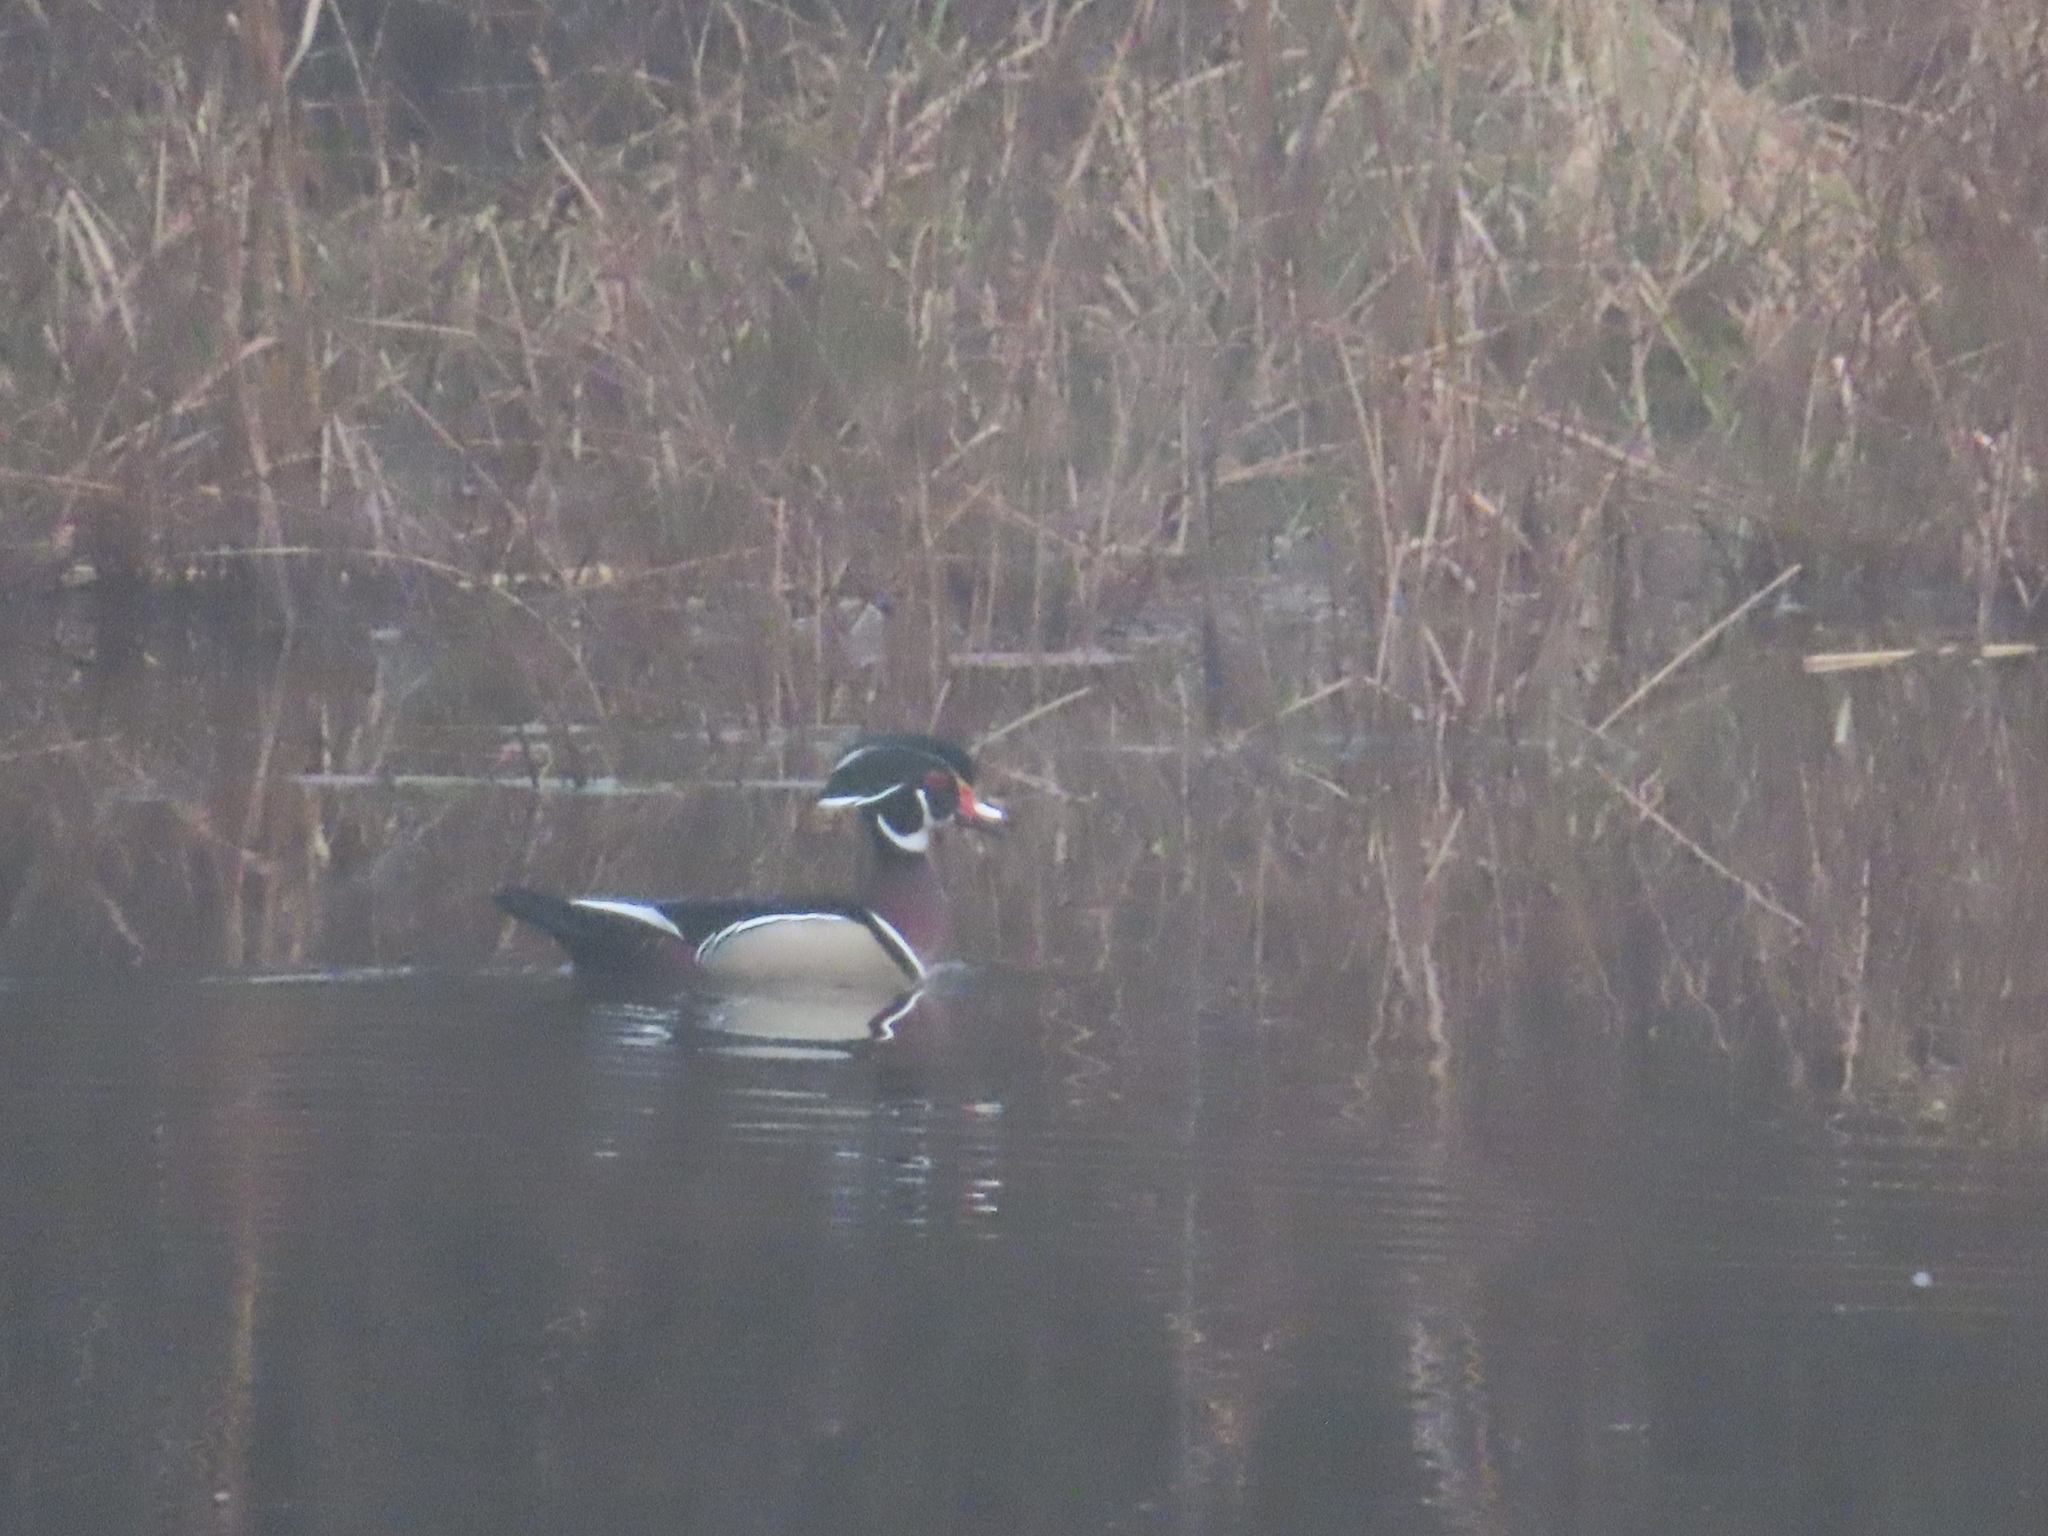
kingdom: Animalia
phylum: Chordata
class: Aves
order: Anseriformes
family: Anatidae
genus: Aix
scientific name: Aix sponsa
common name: Wood duck
